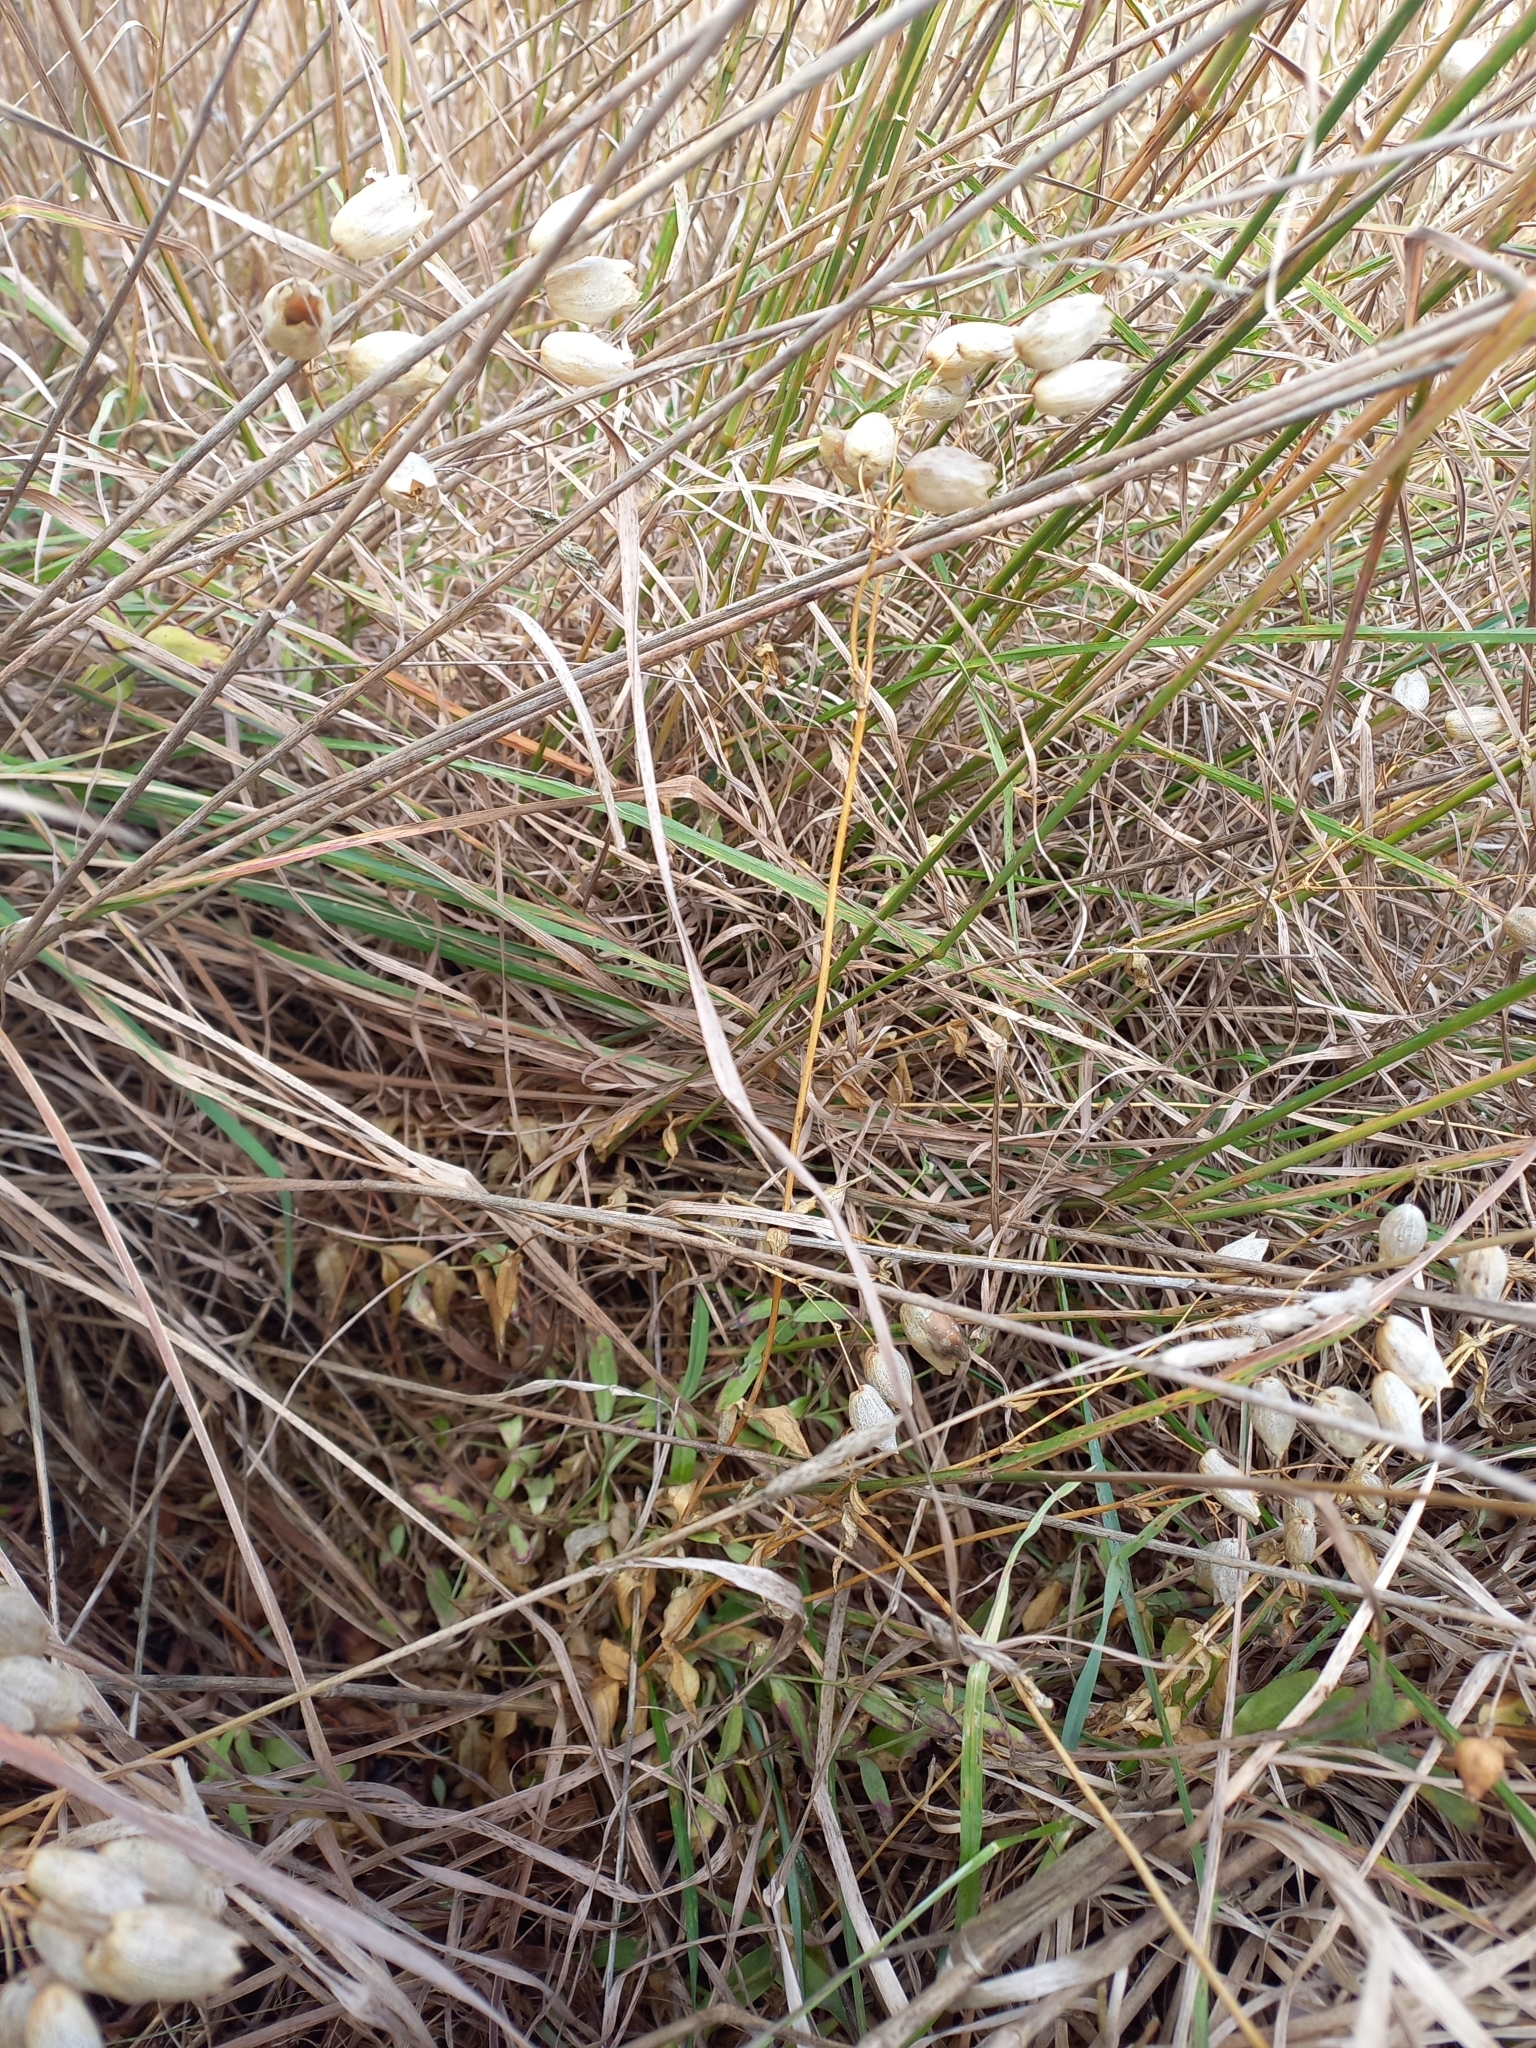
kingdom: Plantae
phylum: Tracheophyta
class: Magnoliopsida
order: Caryophyllales
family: Caryophyllaceae
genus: Silene
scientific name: Silene vulgaris
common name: Bladder campion
